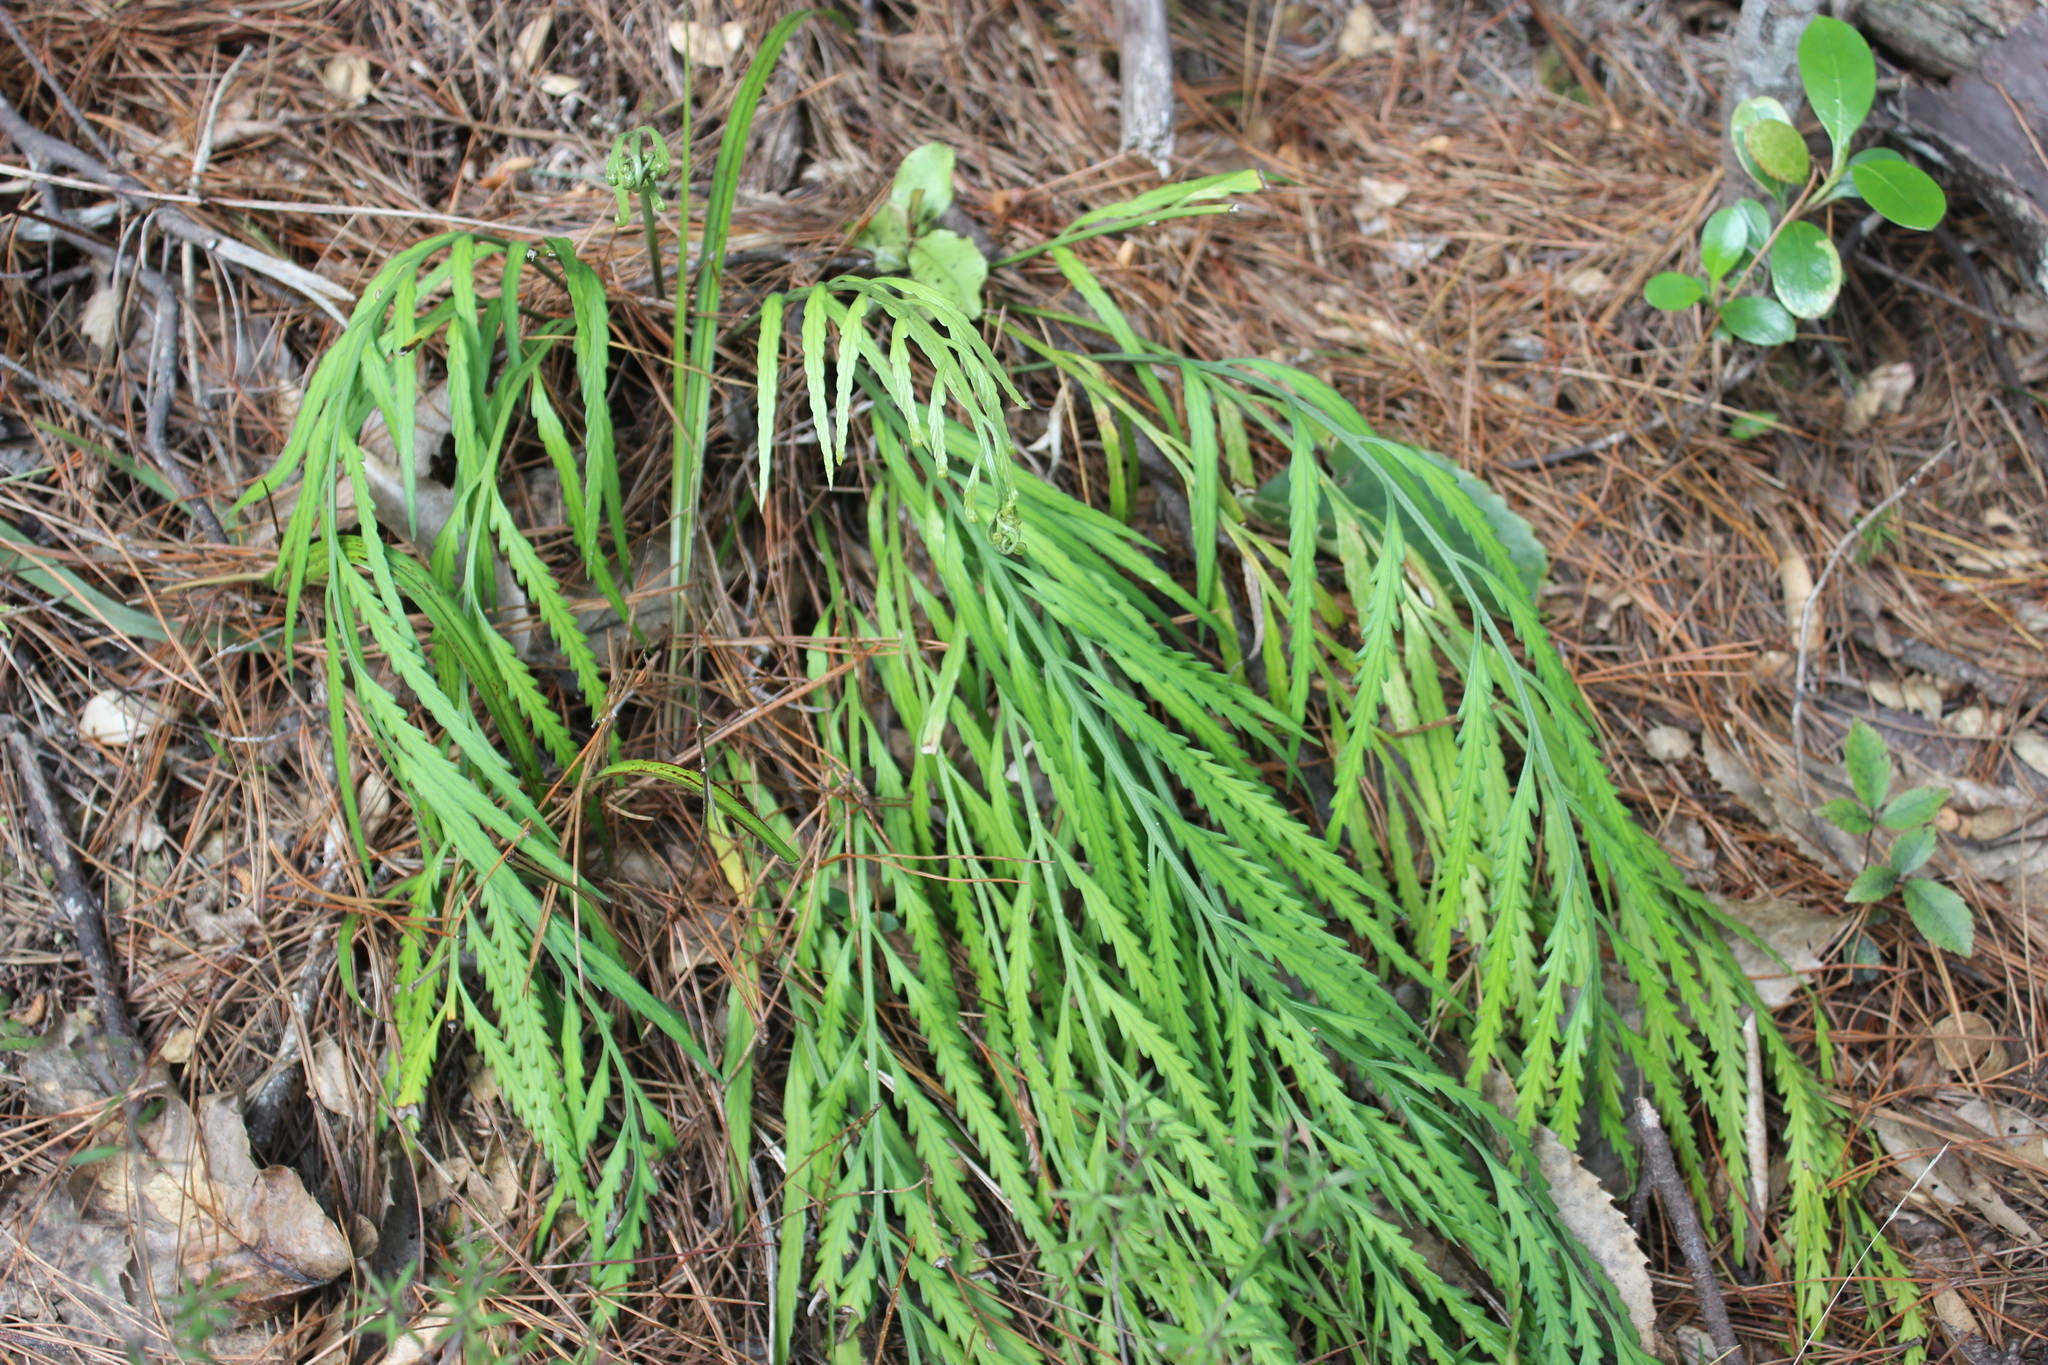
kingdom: Plantae
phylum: Tracheophyta
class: Polypodiopsida
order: Polypodiales
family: Aspleniaceae
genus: Asplenium
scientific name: Asplenium flaccidum
